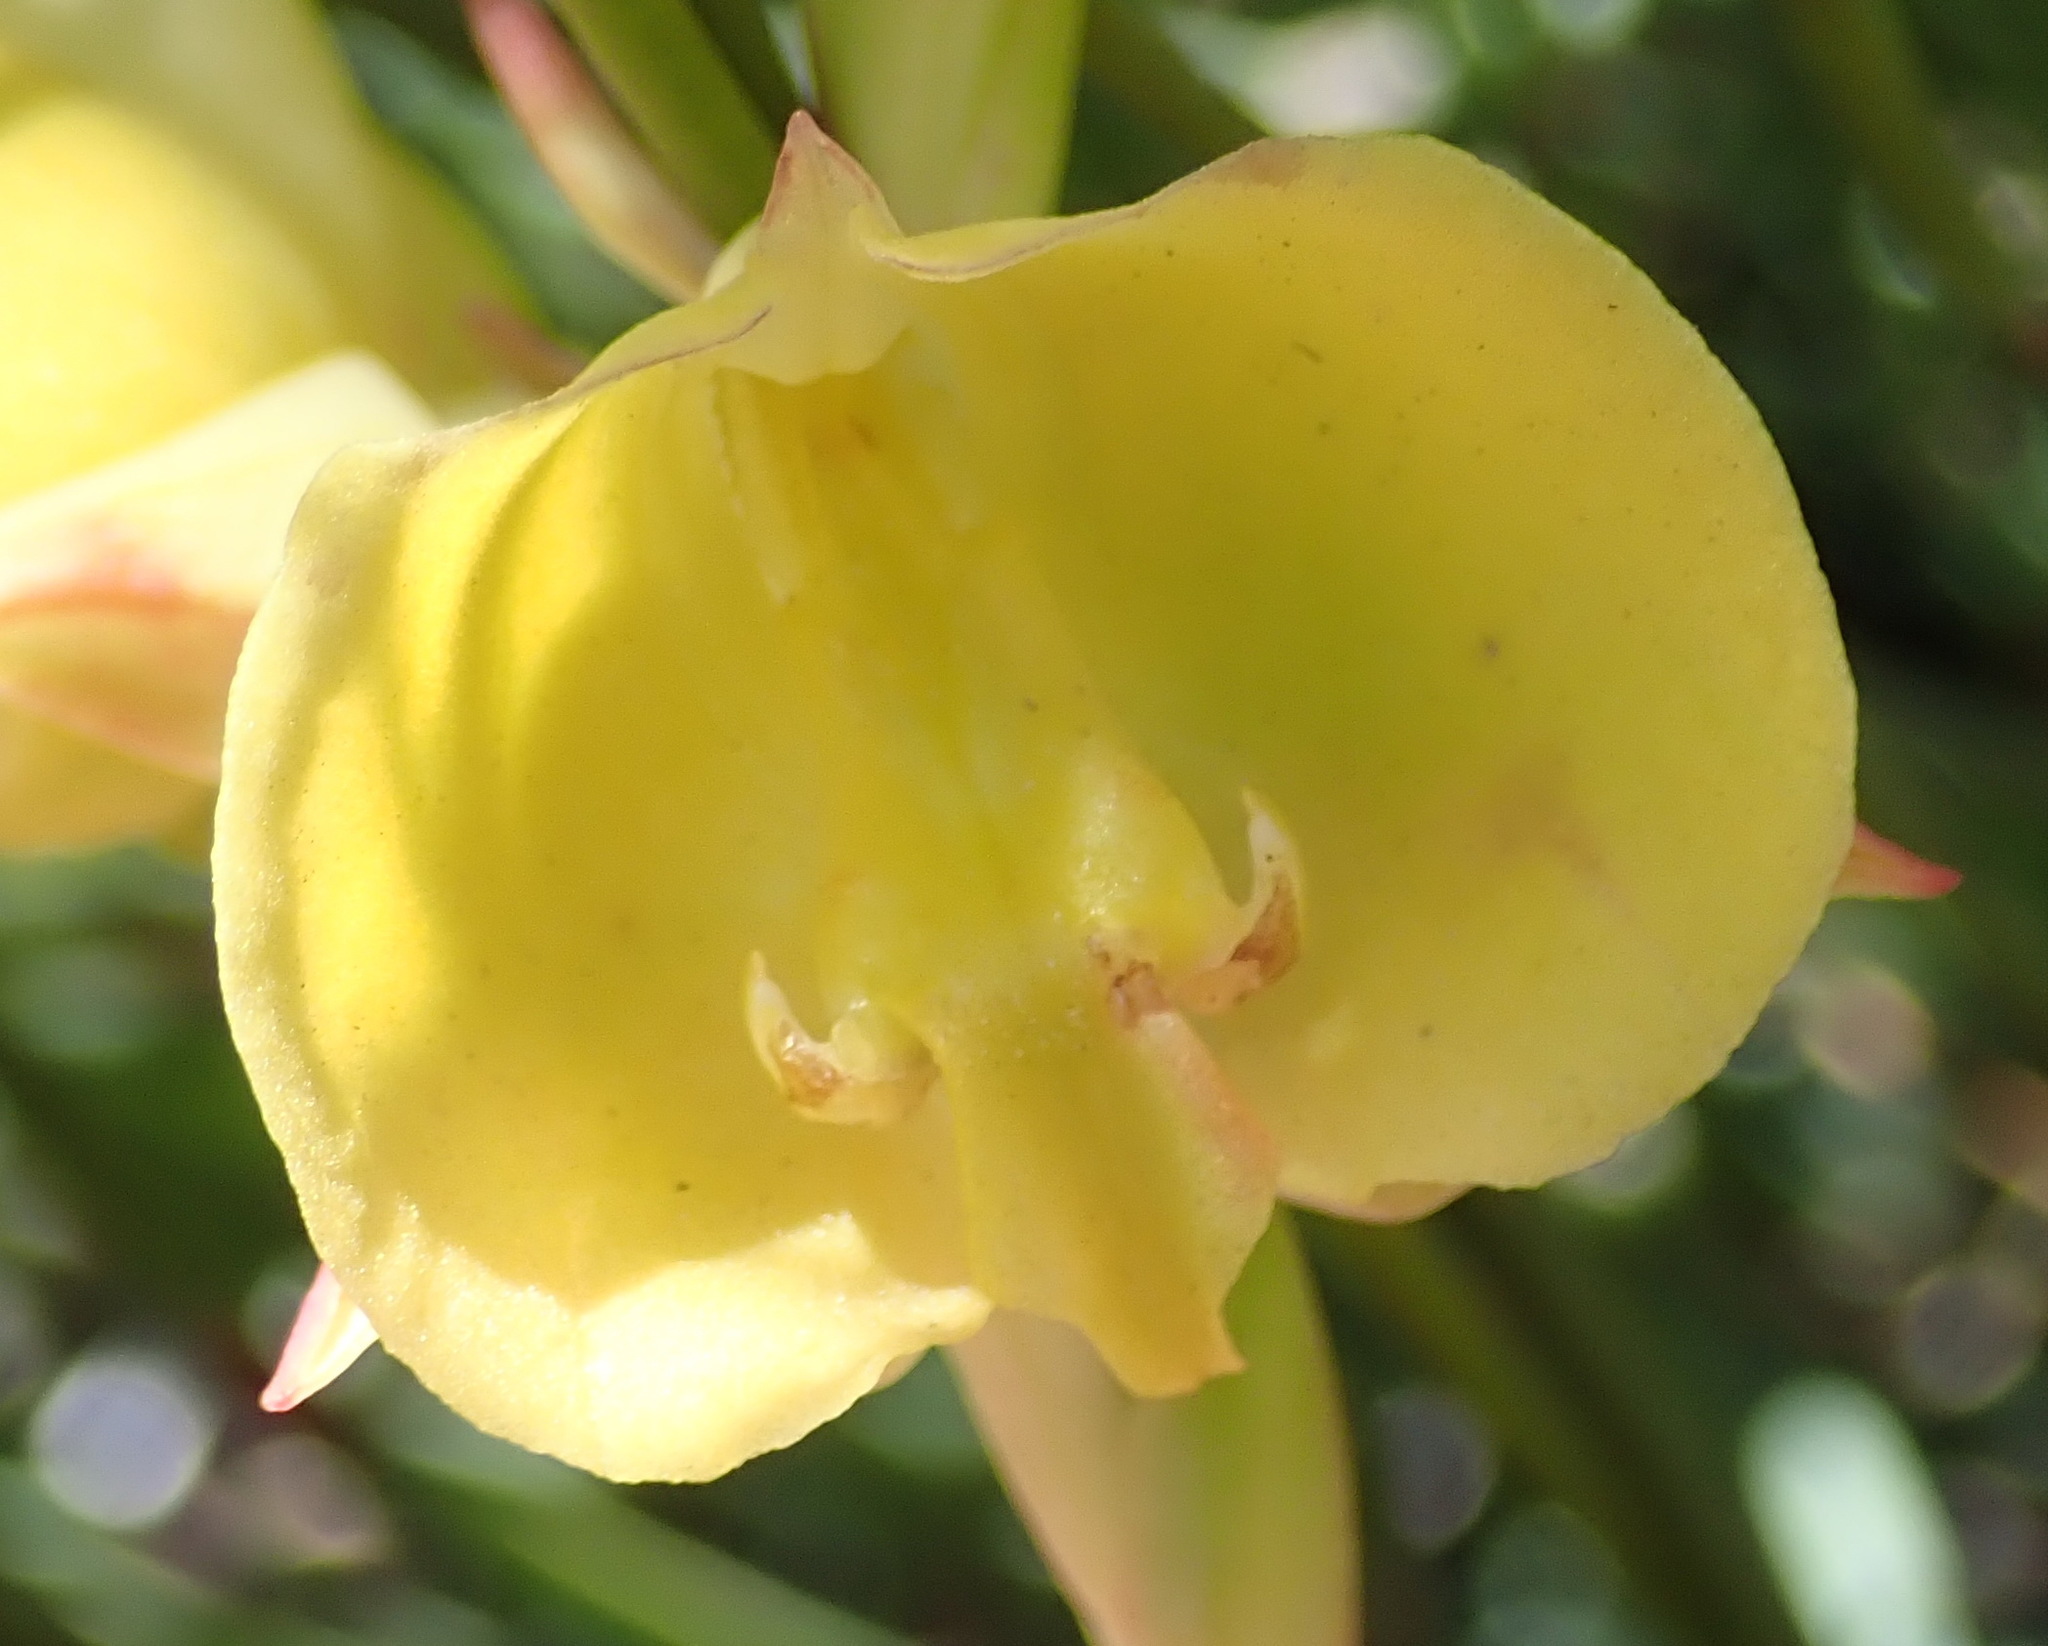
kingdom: Plantae
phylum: Tracheophyta
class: Liliopsida
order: Asparagales
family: Orchidaceae
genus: Pterygodium
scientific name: Pterygodium catholicum
